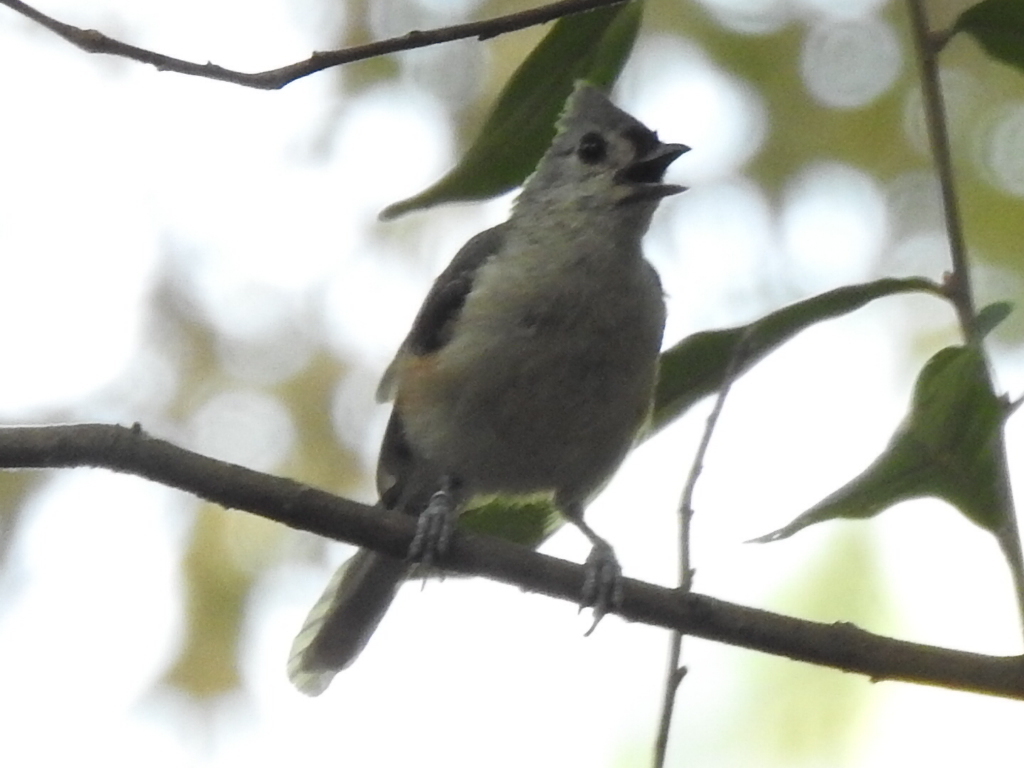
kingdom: Animalia
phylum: Chordata
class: Aves
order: Passeriformes
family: Paridae
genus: Baeolophus
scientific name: Baeolophus bicolor
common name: Tufted titmouse
